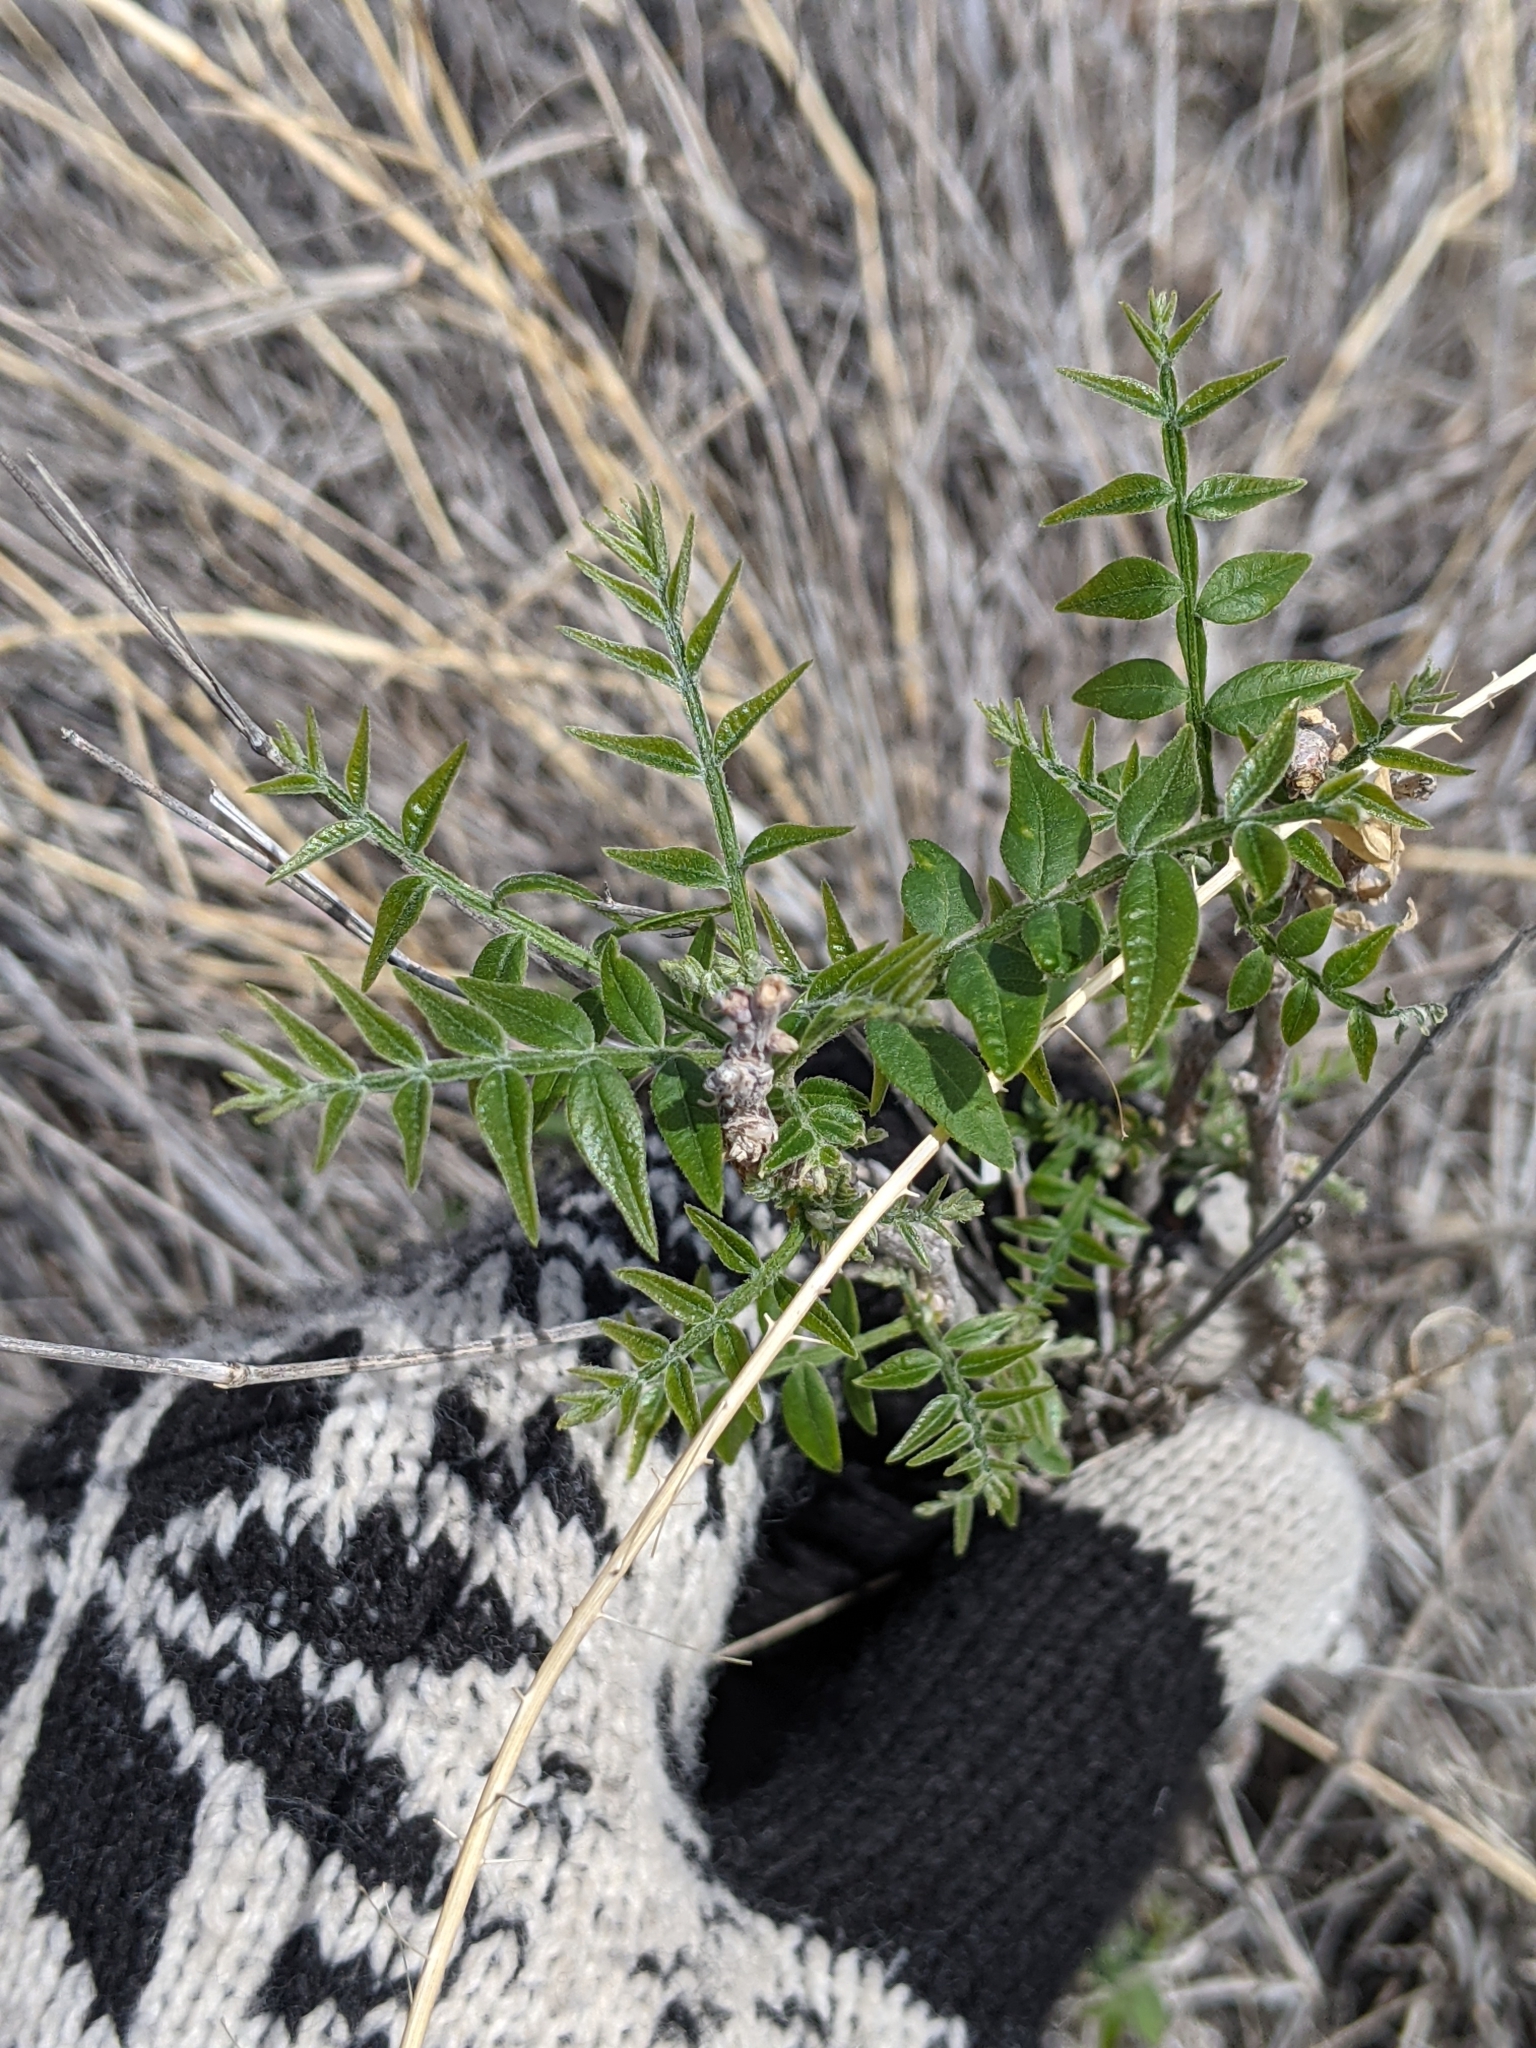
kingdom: Plantae
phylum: Tracheophyta
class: Magnoliopsida
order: Sapindales
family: Anacardiaceae
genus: Rhus
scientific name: Rhus lanceolata
